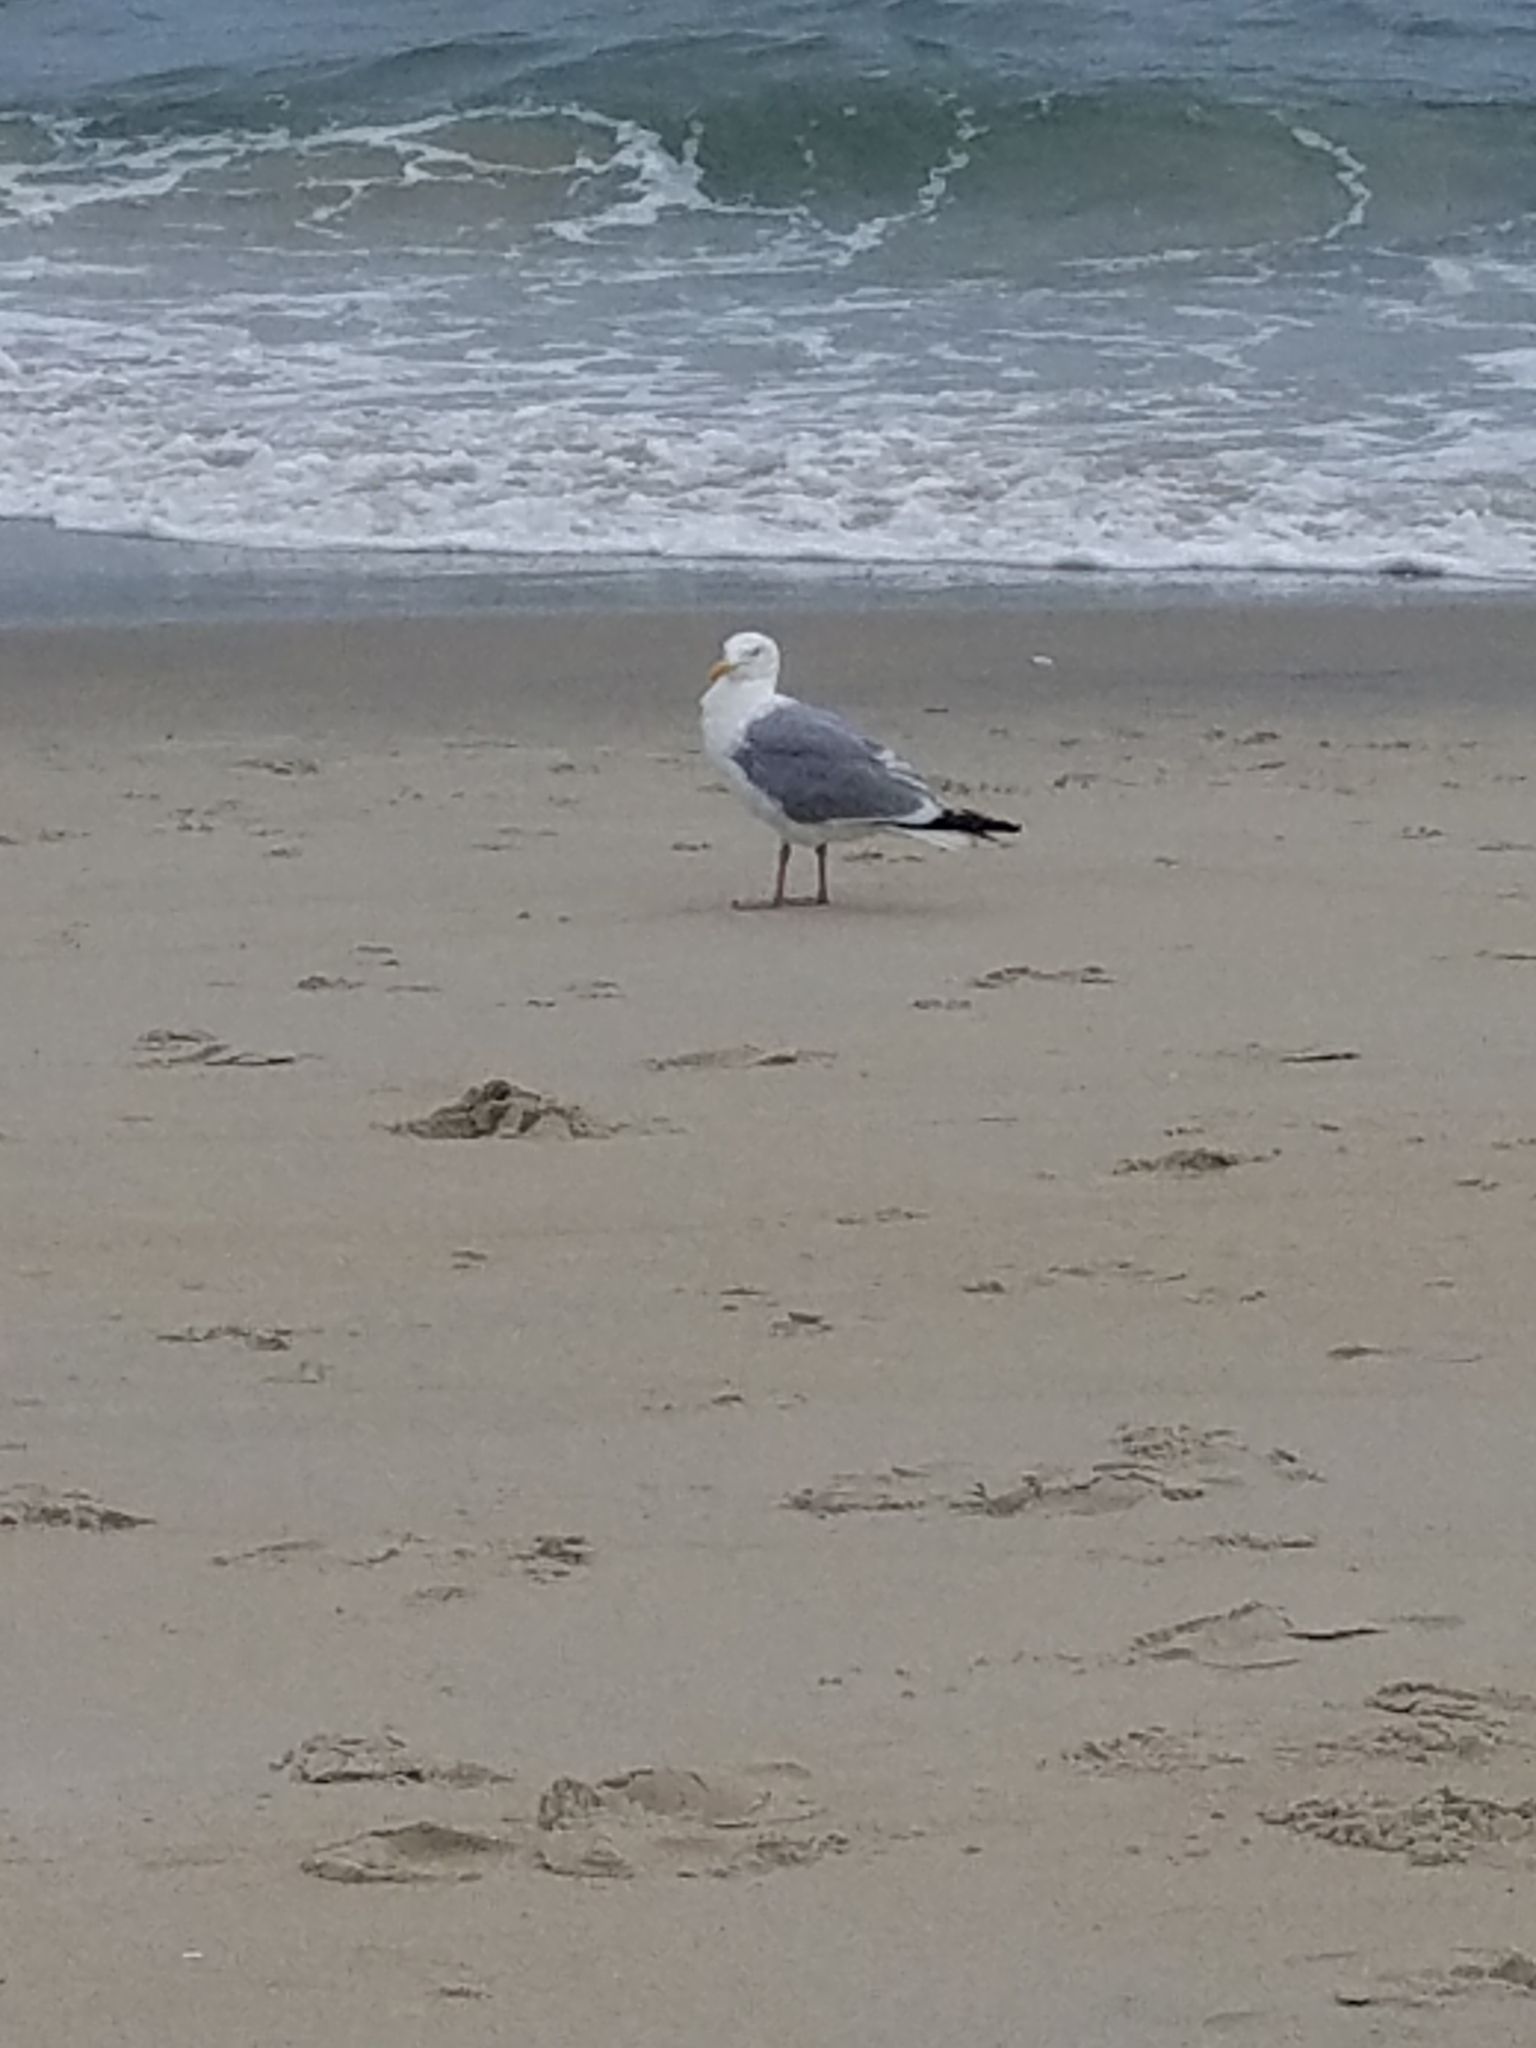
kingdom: Animalia
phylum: Chordata
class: Aves
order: Charadriiformes
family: Laridae
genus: Larus
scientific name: Larus argentatus
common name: Herring gull
